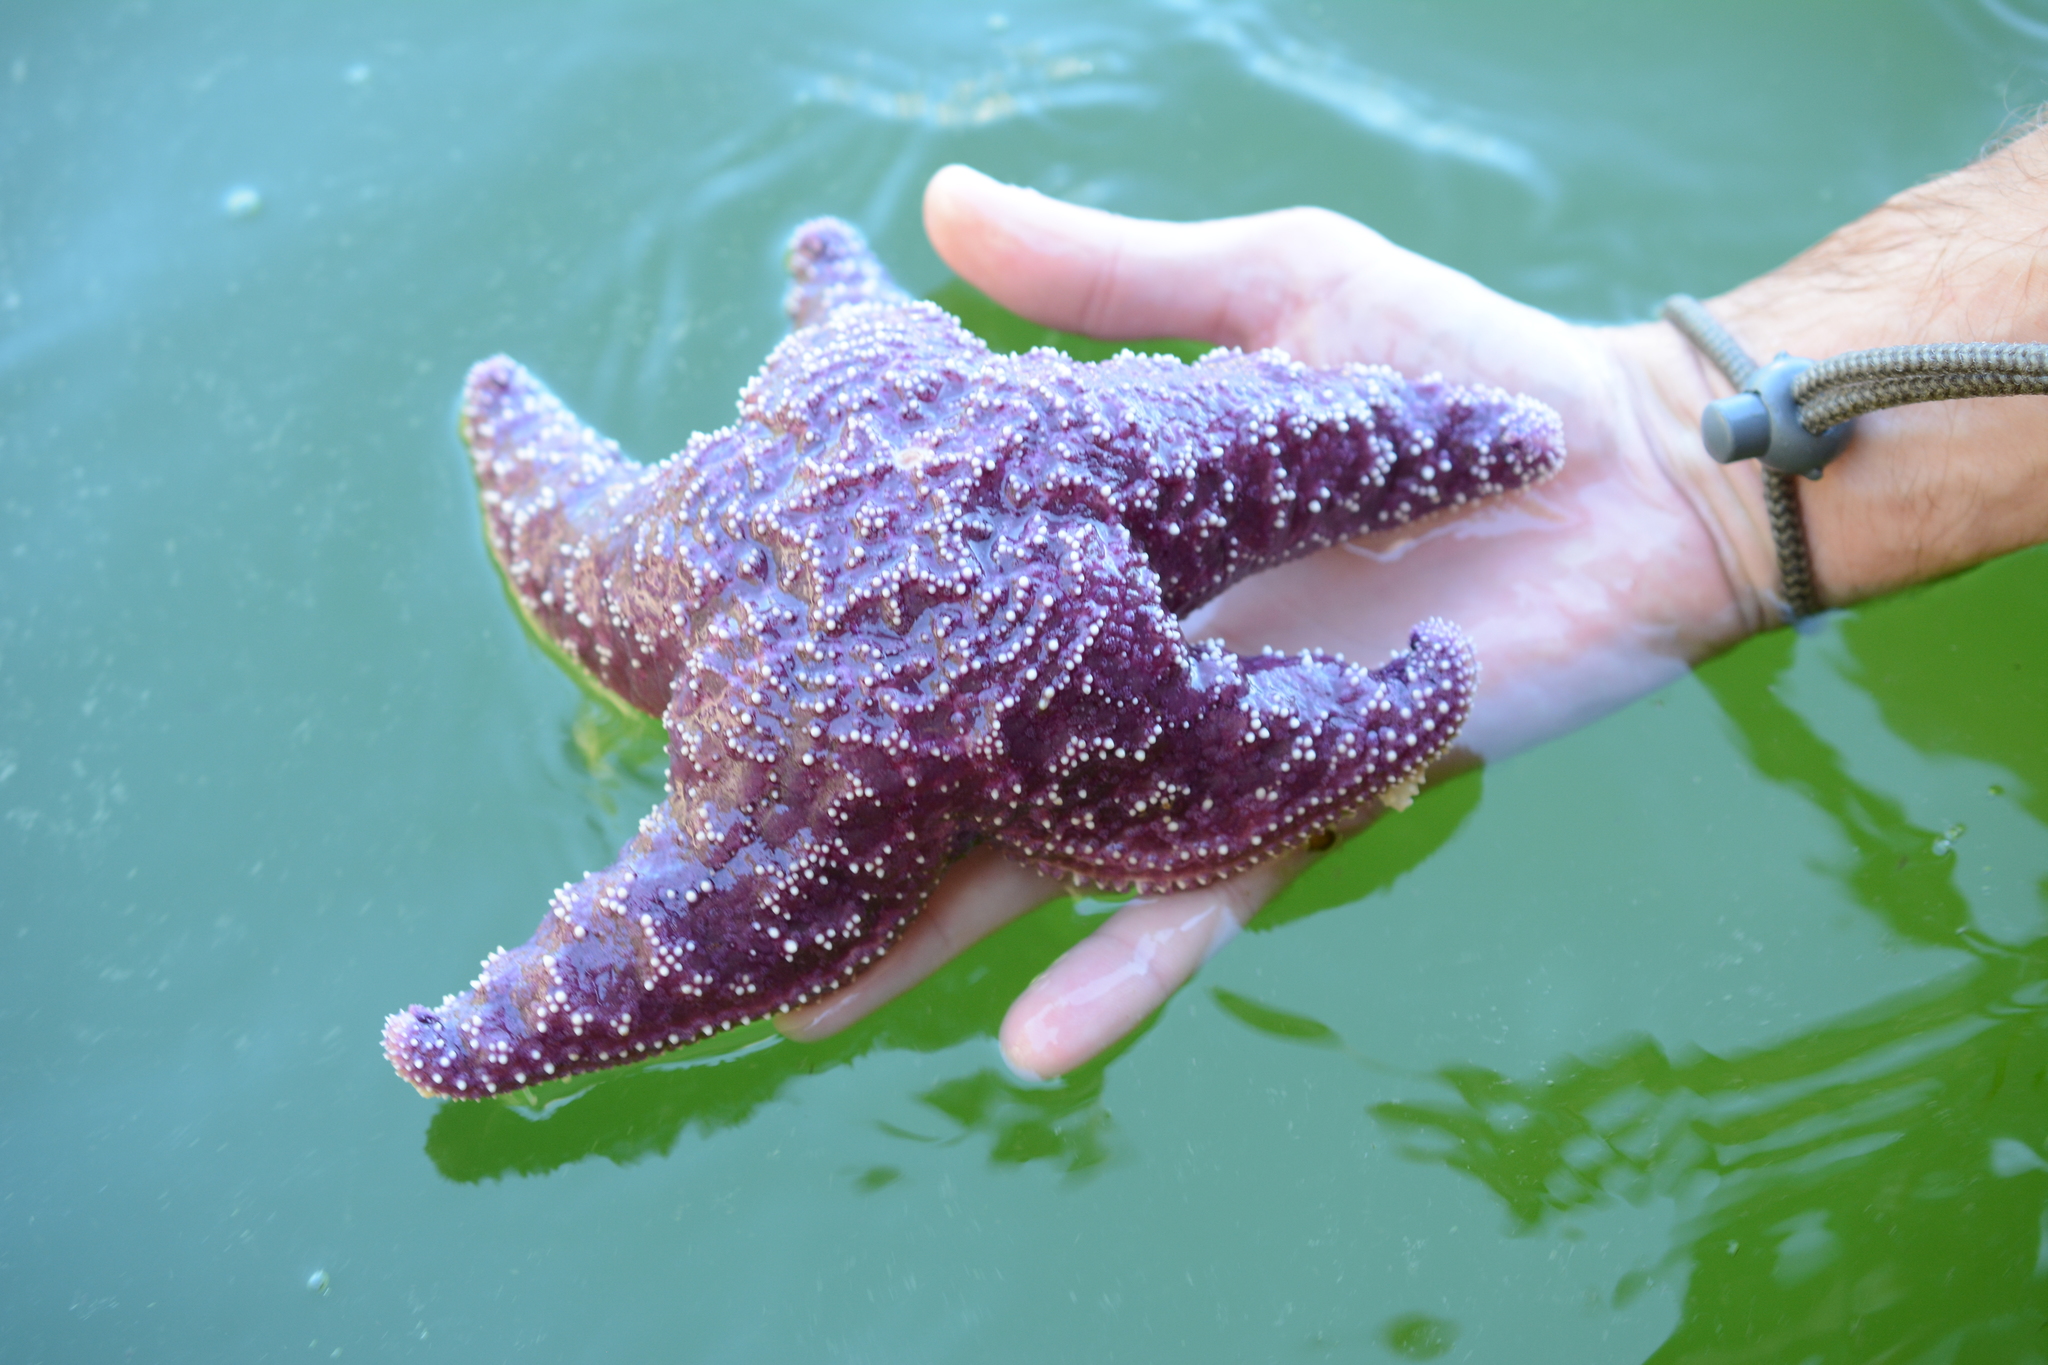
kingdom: Animalia
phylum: Echinodermata
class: Asteroidea
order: Forcipulatida
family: Asteriidae
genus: Pisaster
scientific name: Pisaster ochraceus
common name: Ochre stars
